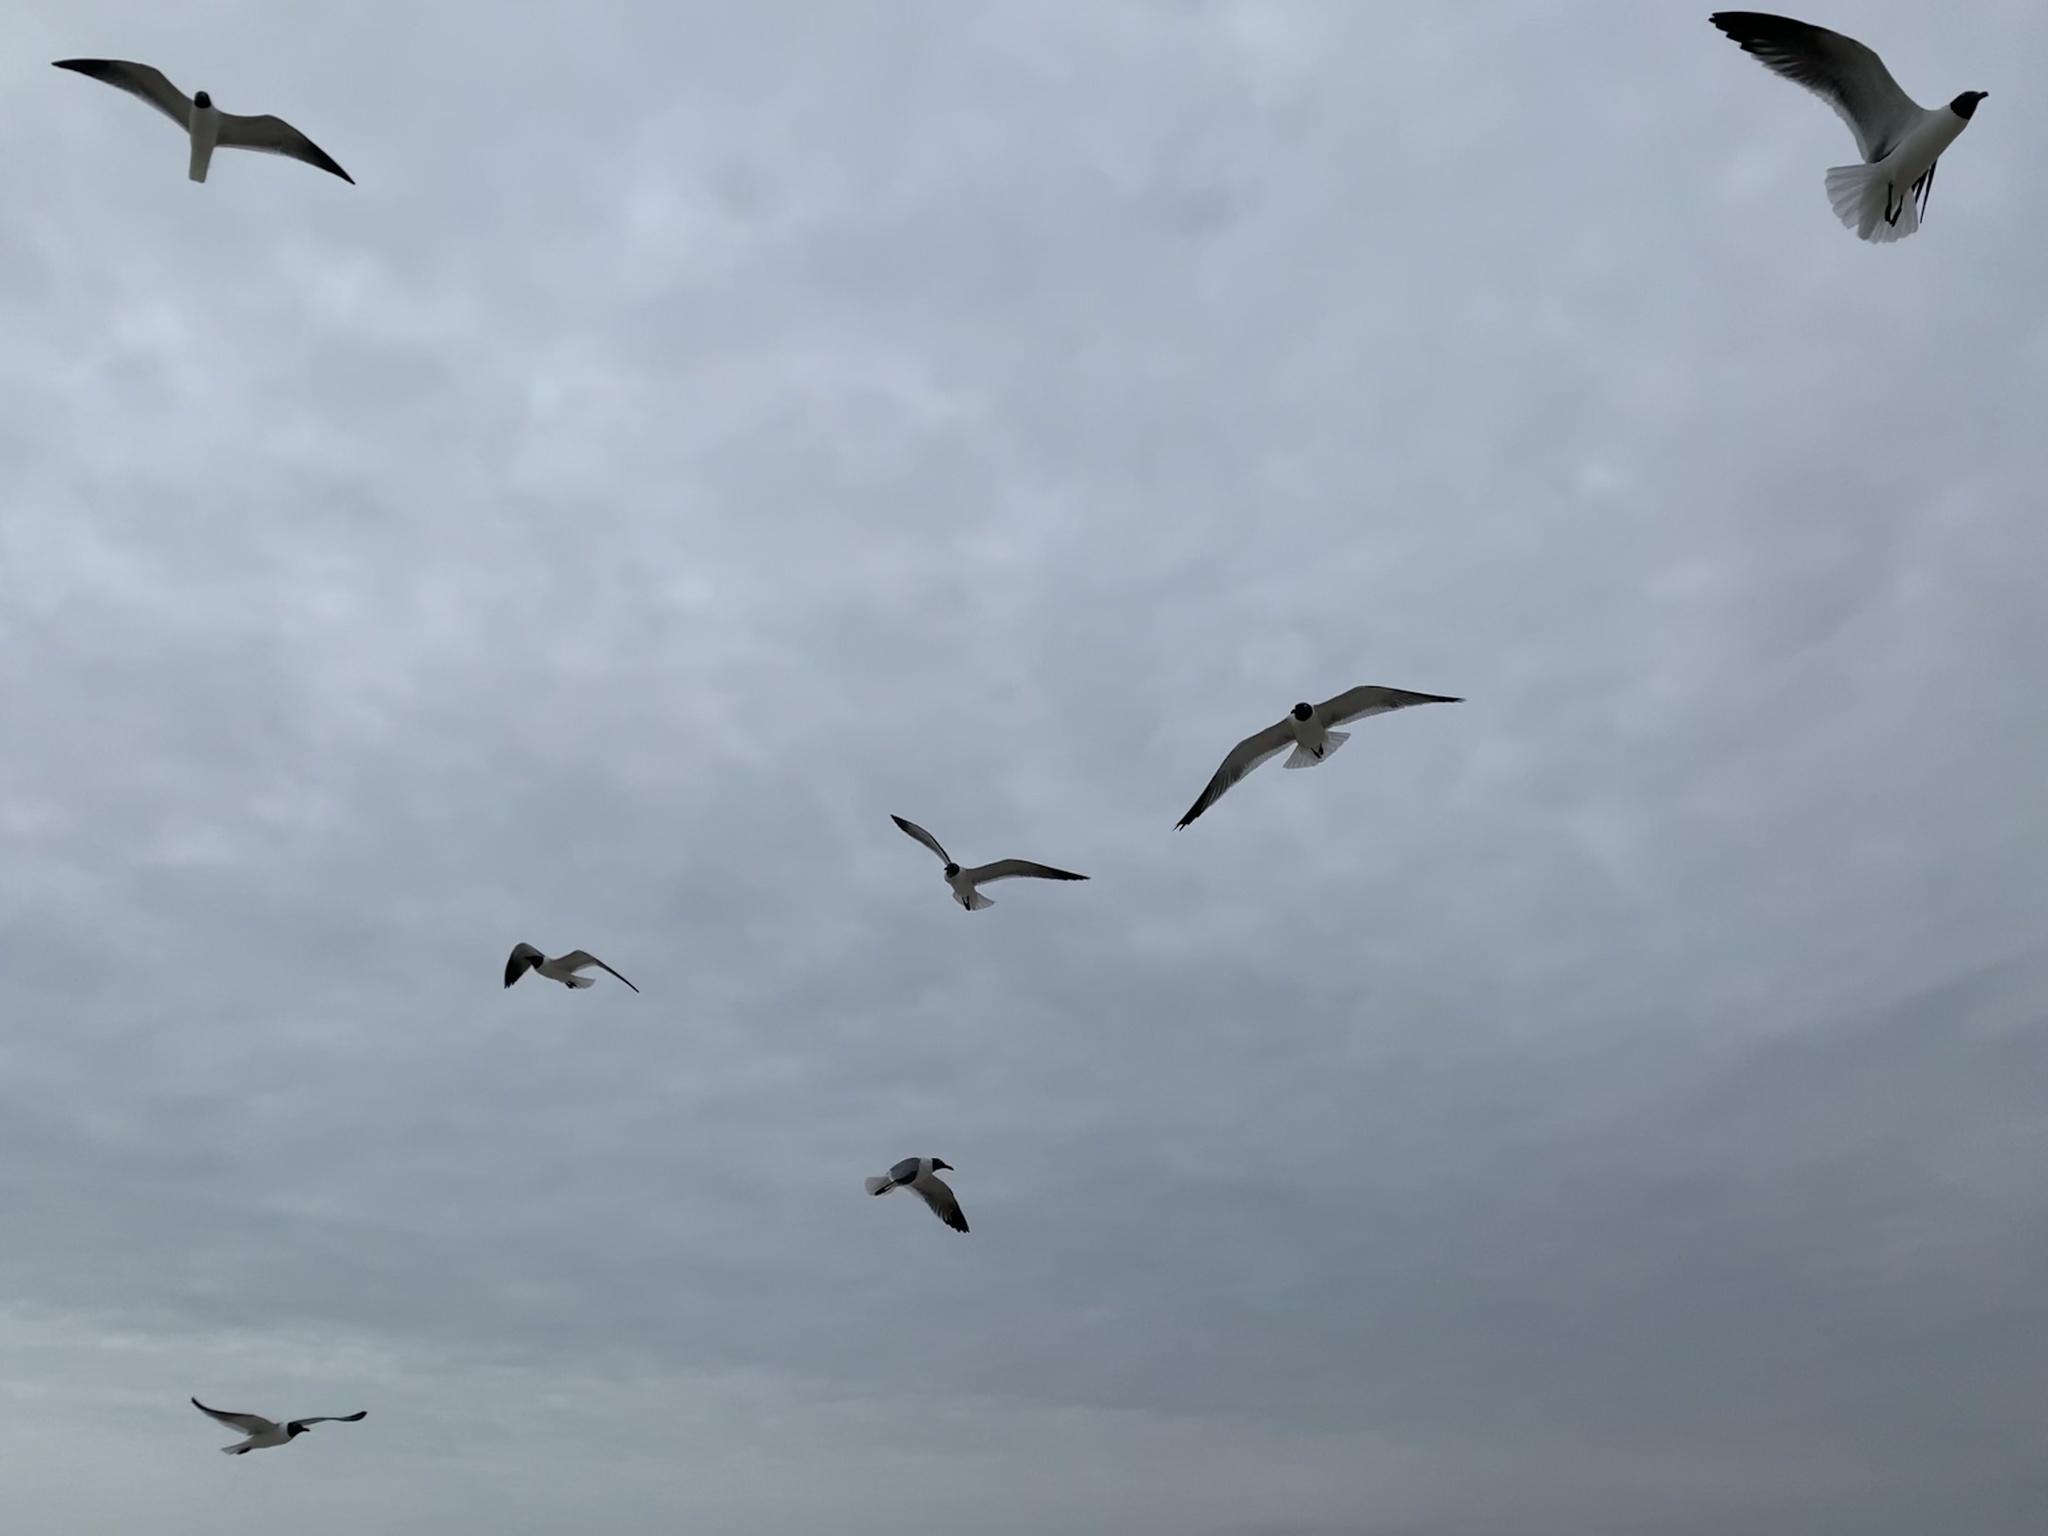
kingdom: Animalia
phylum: Chordata
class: Aves
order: Charadriiformes
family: Laridae
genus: Leucophaeus
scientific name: Leucophaeus atricilla
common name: Laughing gull
